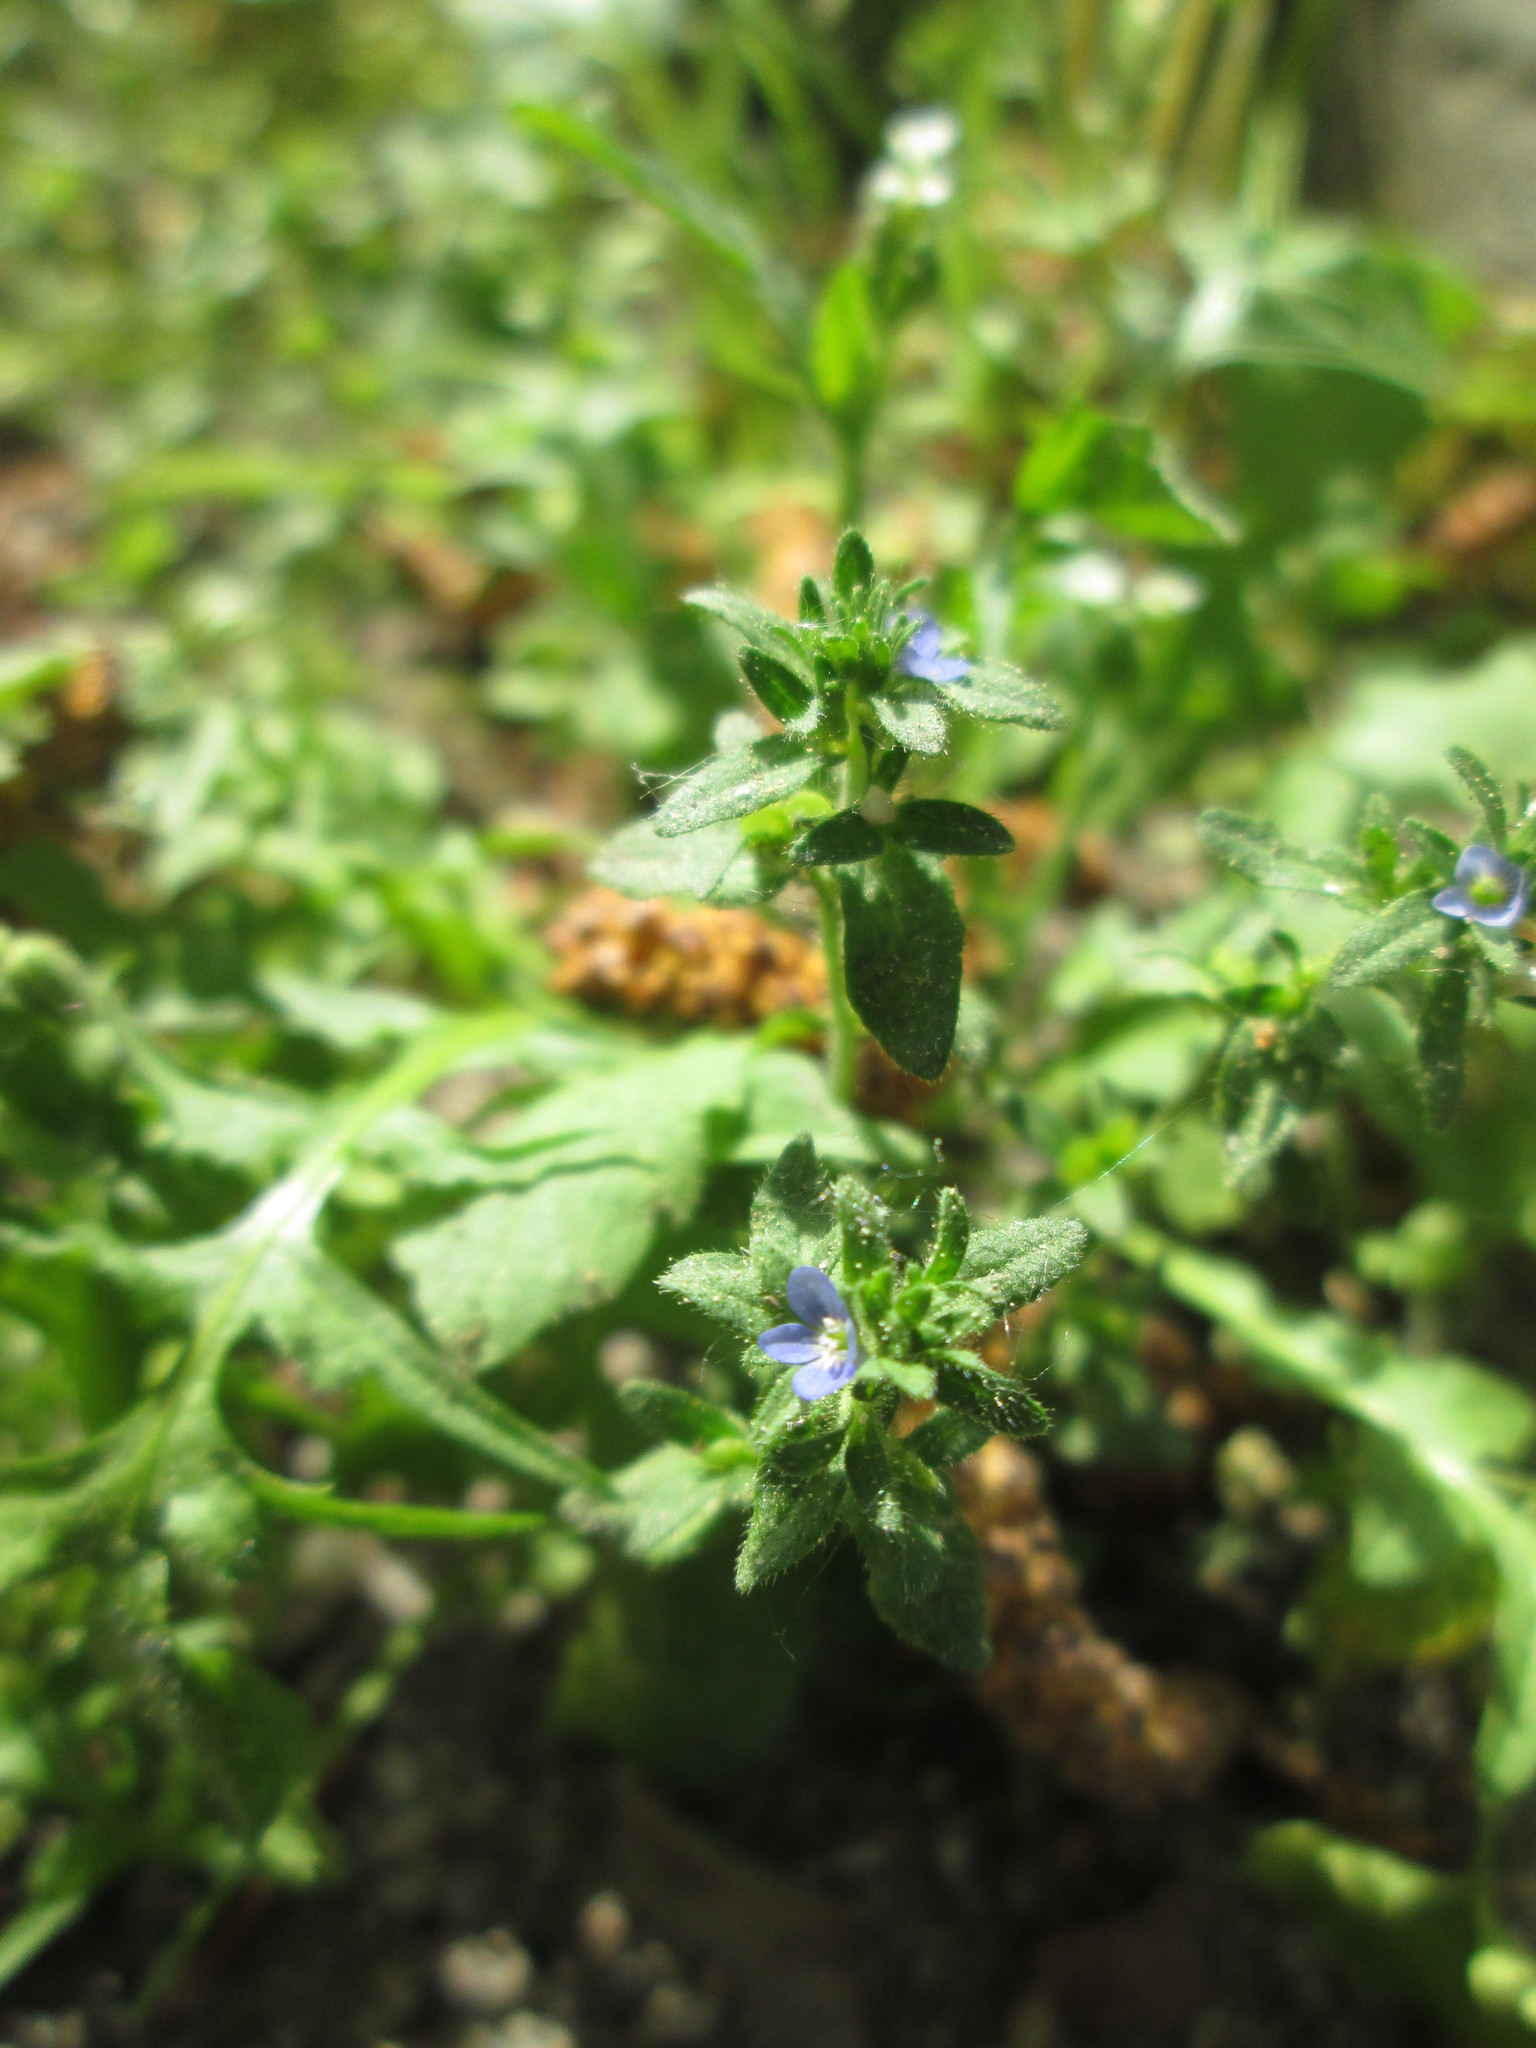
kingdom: Plantae
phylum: Tracheophyta
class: Magnoliopsida
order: Lamiales
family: Plantaginaceae
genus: Veronica
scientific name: Veronica arvensis
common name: Corn speedwell
